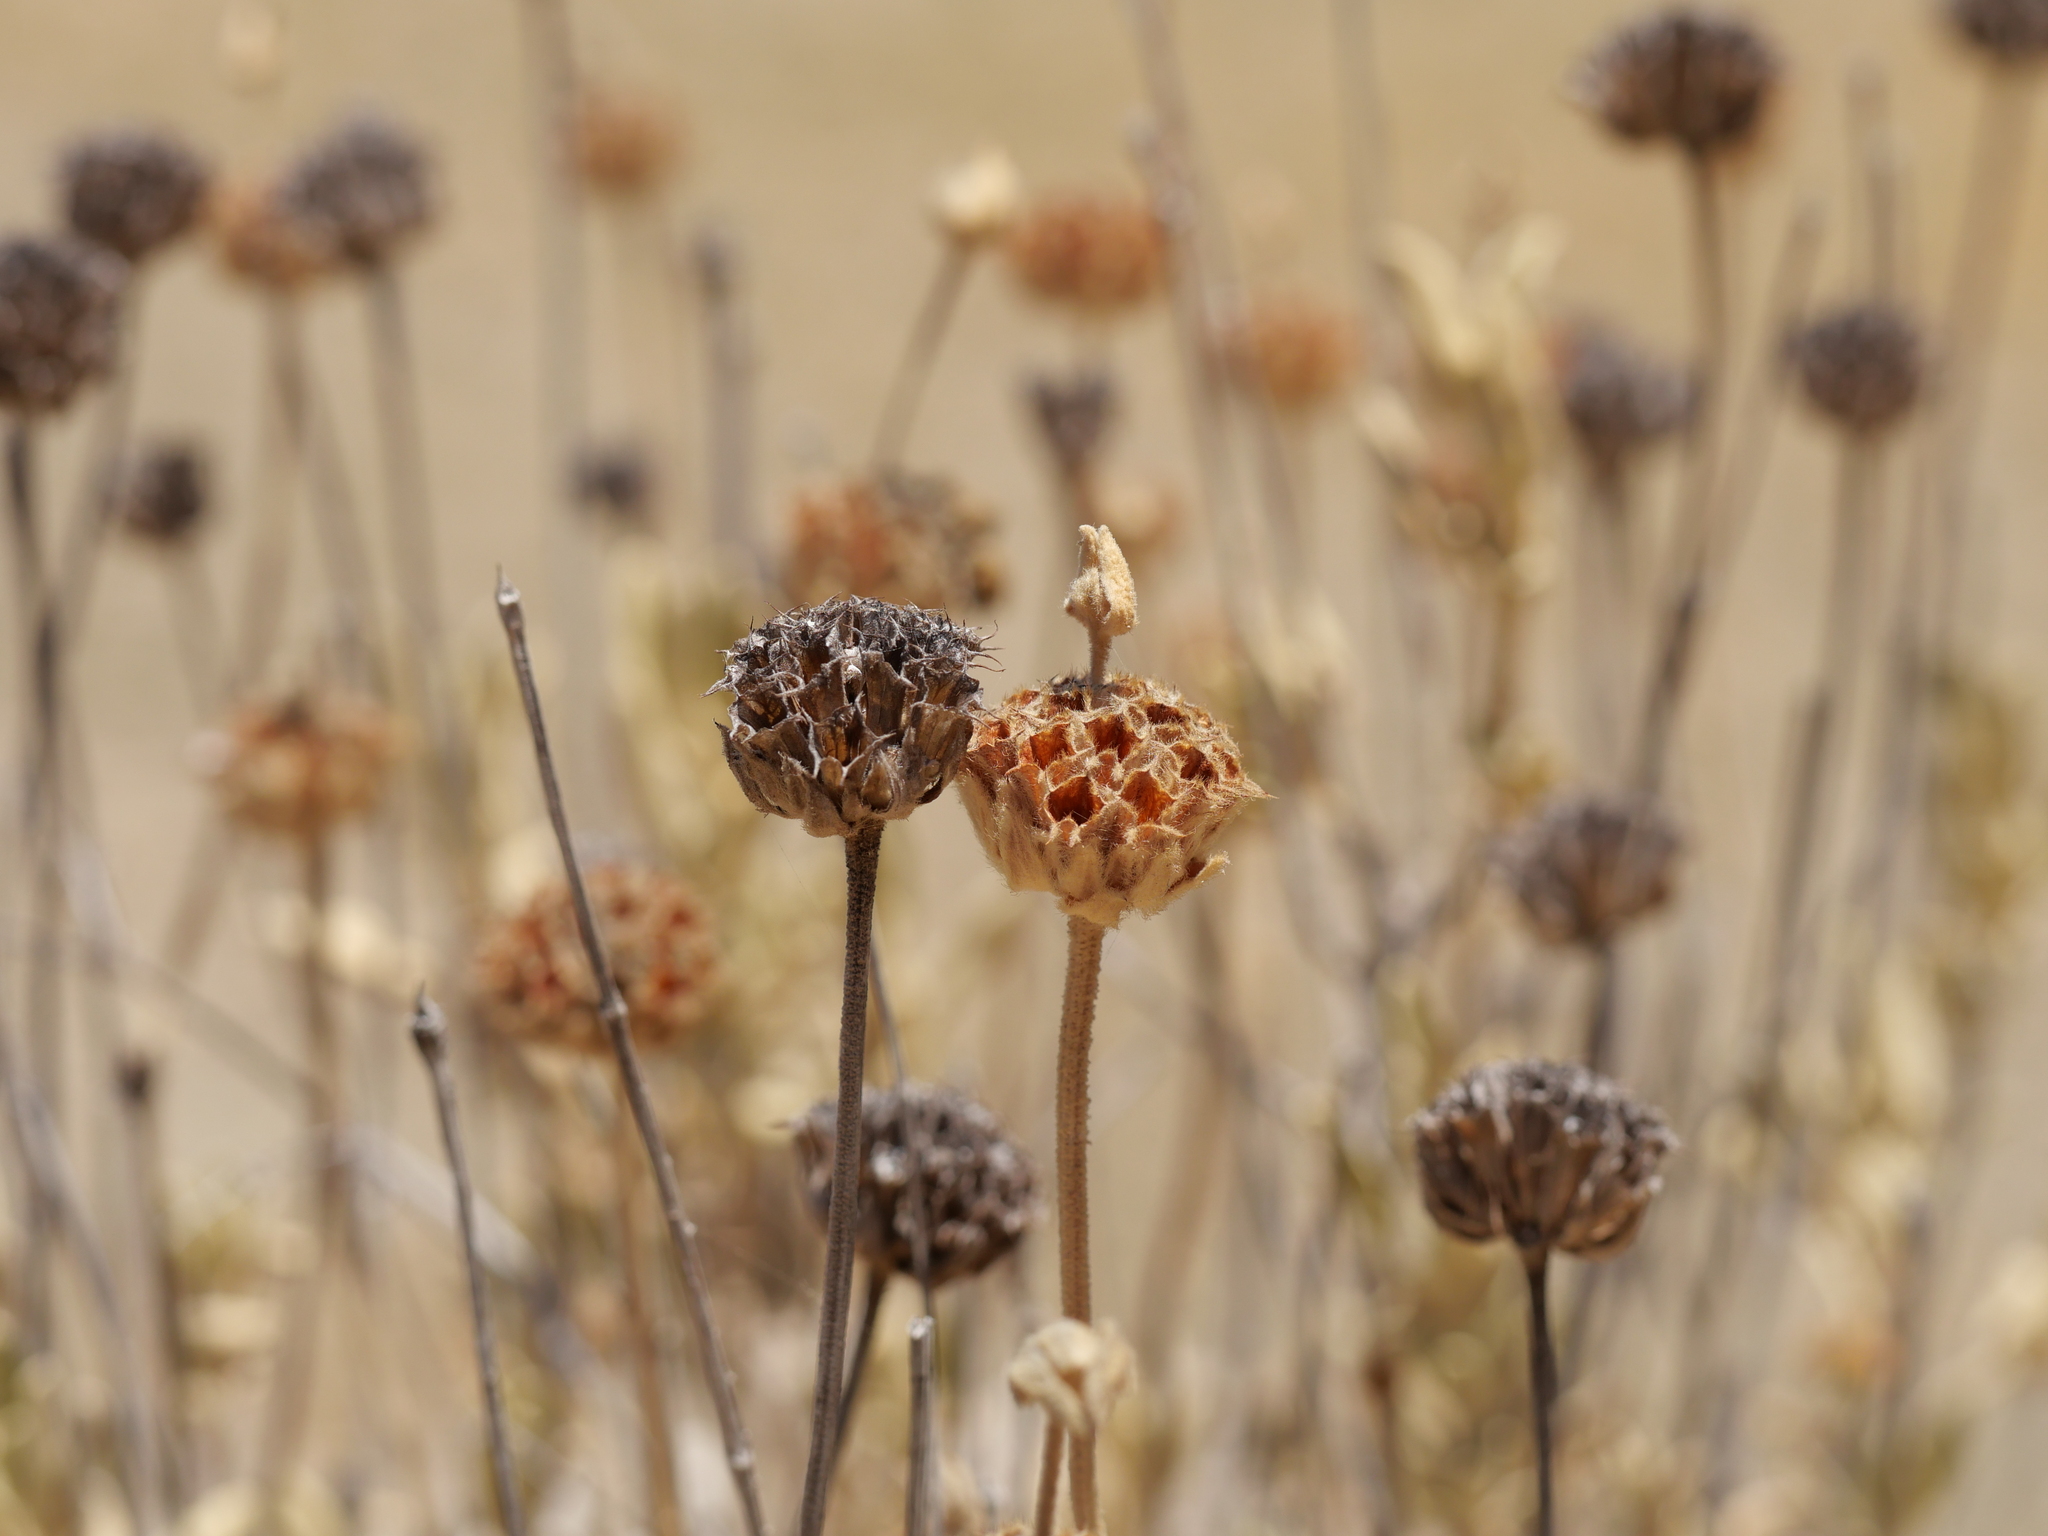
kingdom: Plantae
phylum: Tracheophyta
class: Magnoliopsida
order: Lamiales
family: Lamiaceae
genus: Phlomis
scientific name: Phlomis fruticosa
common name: Jerusalem sage
